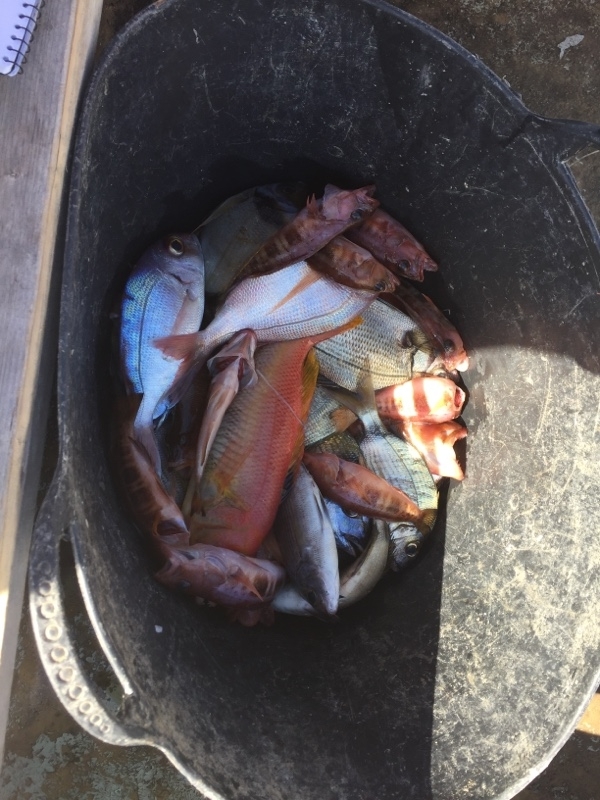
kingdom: Animalia
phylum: Chordata
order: Perciformes
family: Serranidae
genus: Serranus
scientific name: Serranus atricauda
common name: Blacktail comber
